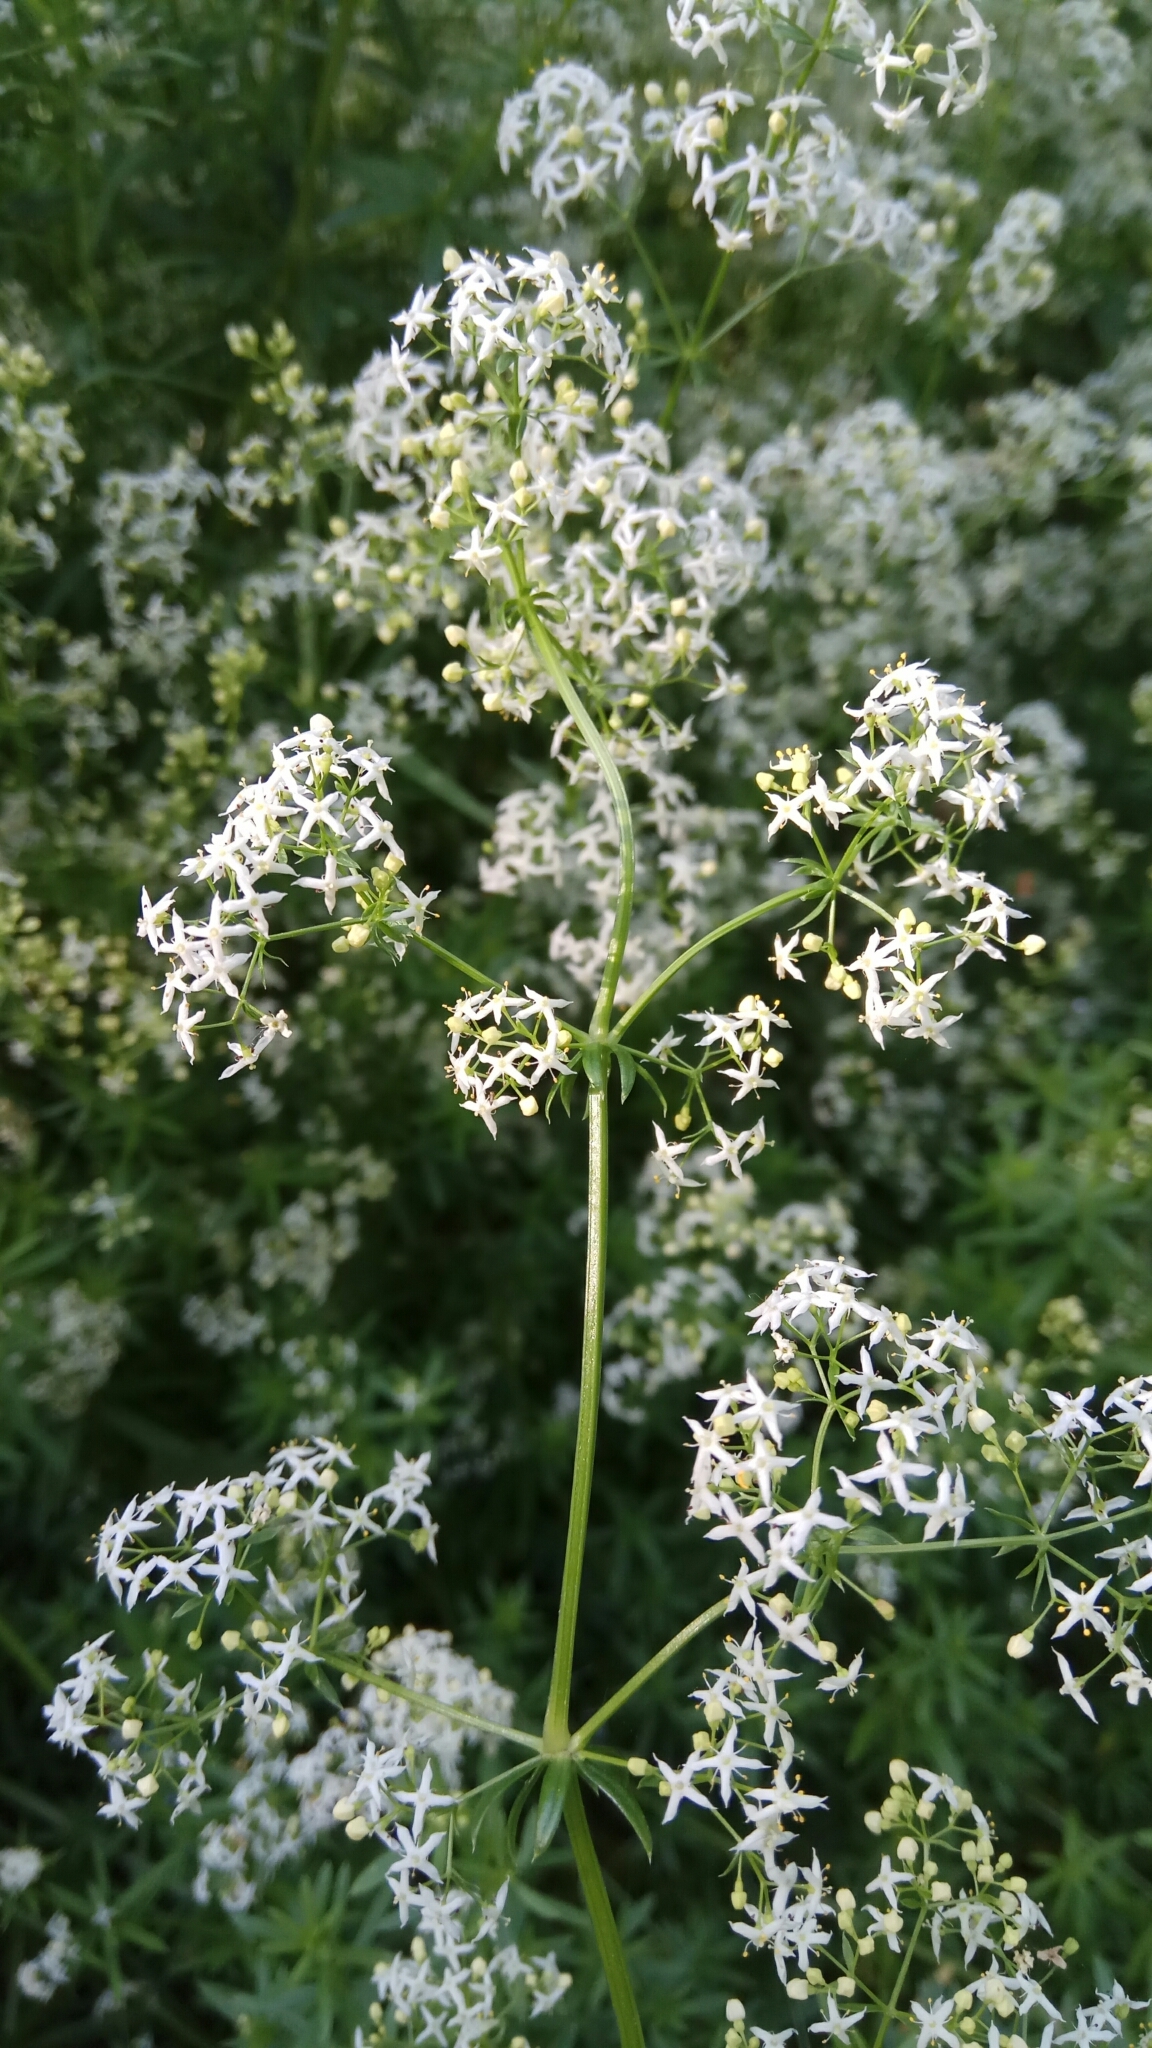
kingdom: Plantae
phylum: Tracheophyta
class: Magnoliopsida
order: Gentianales
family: Rubiaceae
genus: Galium
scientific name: Galium mollugo
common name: Hedge bedstraw
